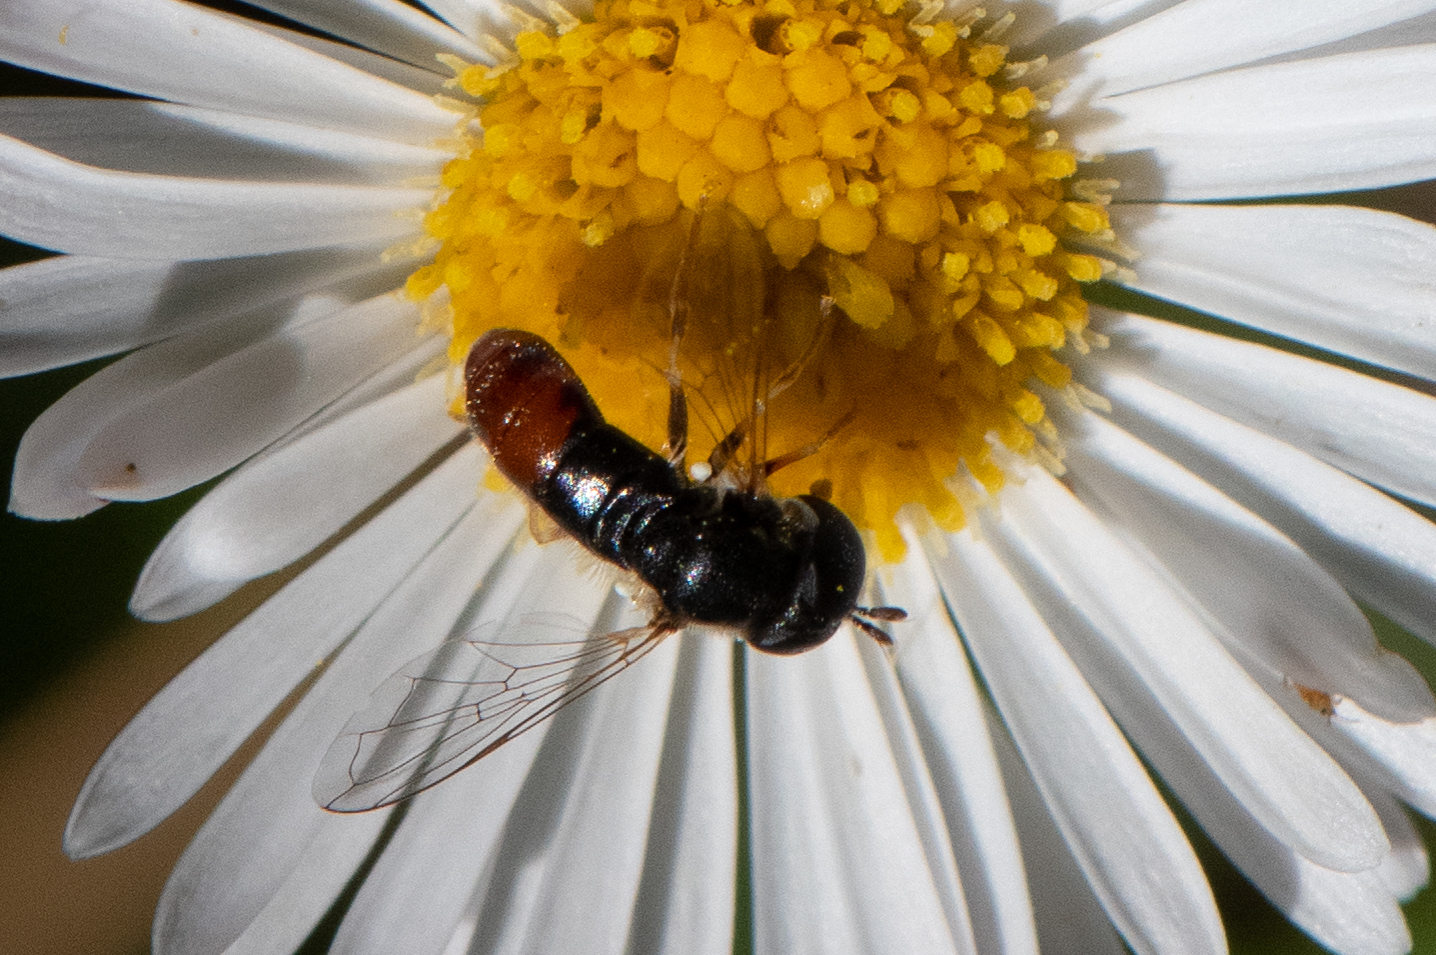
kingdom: Animalia
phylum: Arthropoda
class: Insecta
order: Diptera
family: Syrphidae
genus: Paragus
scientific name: Paragus haemorrhous
